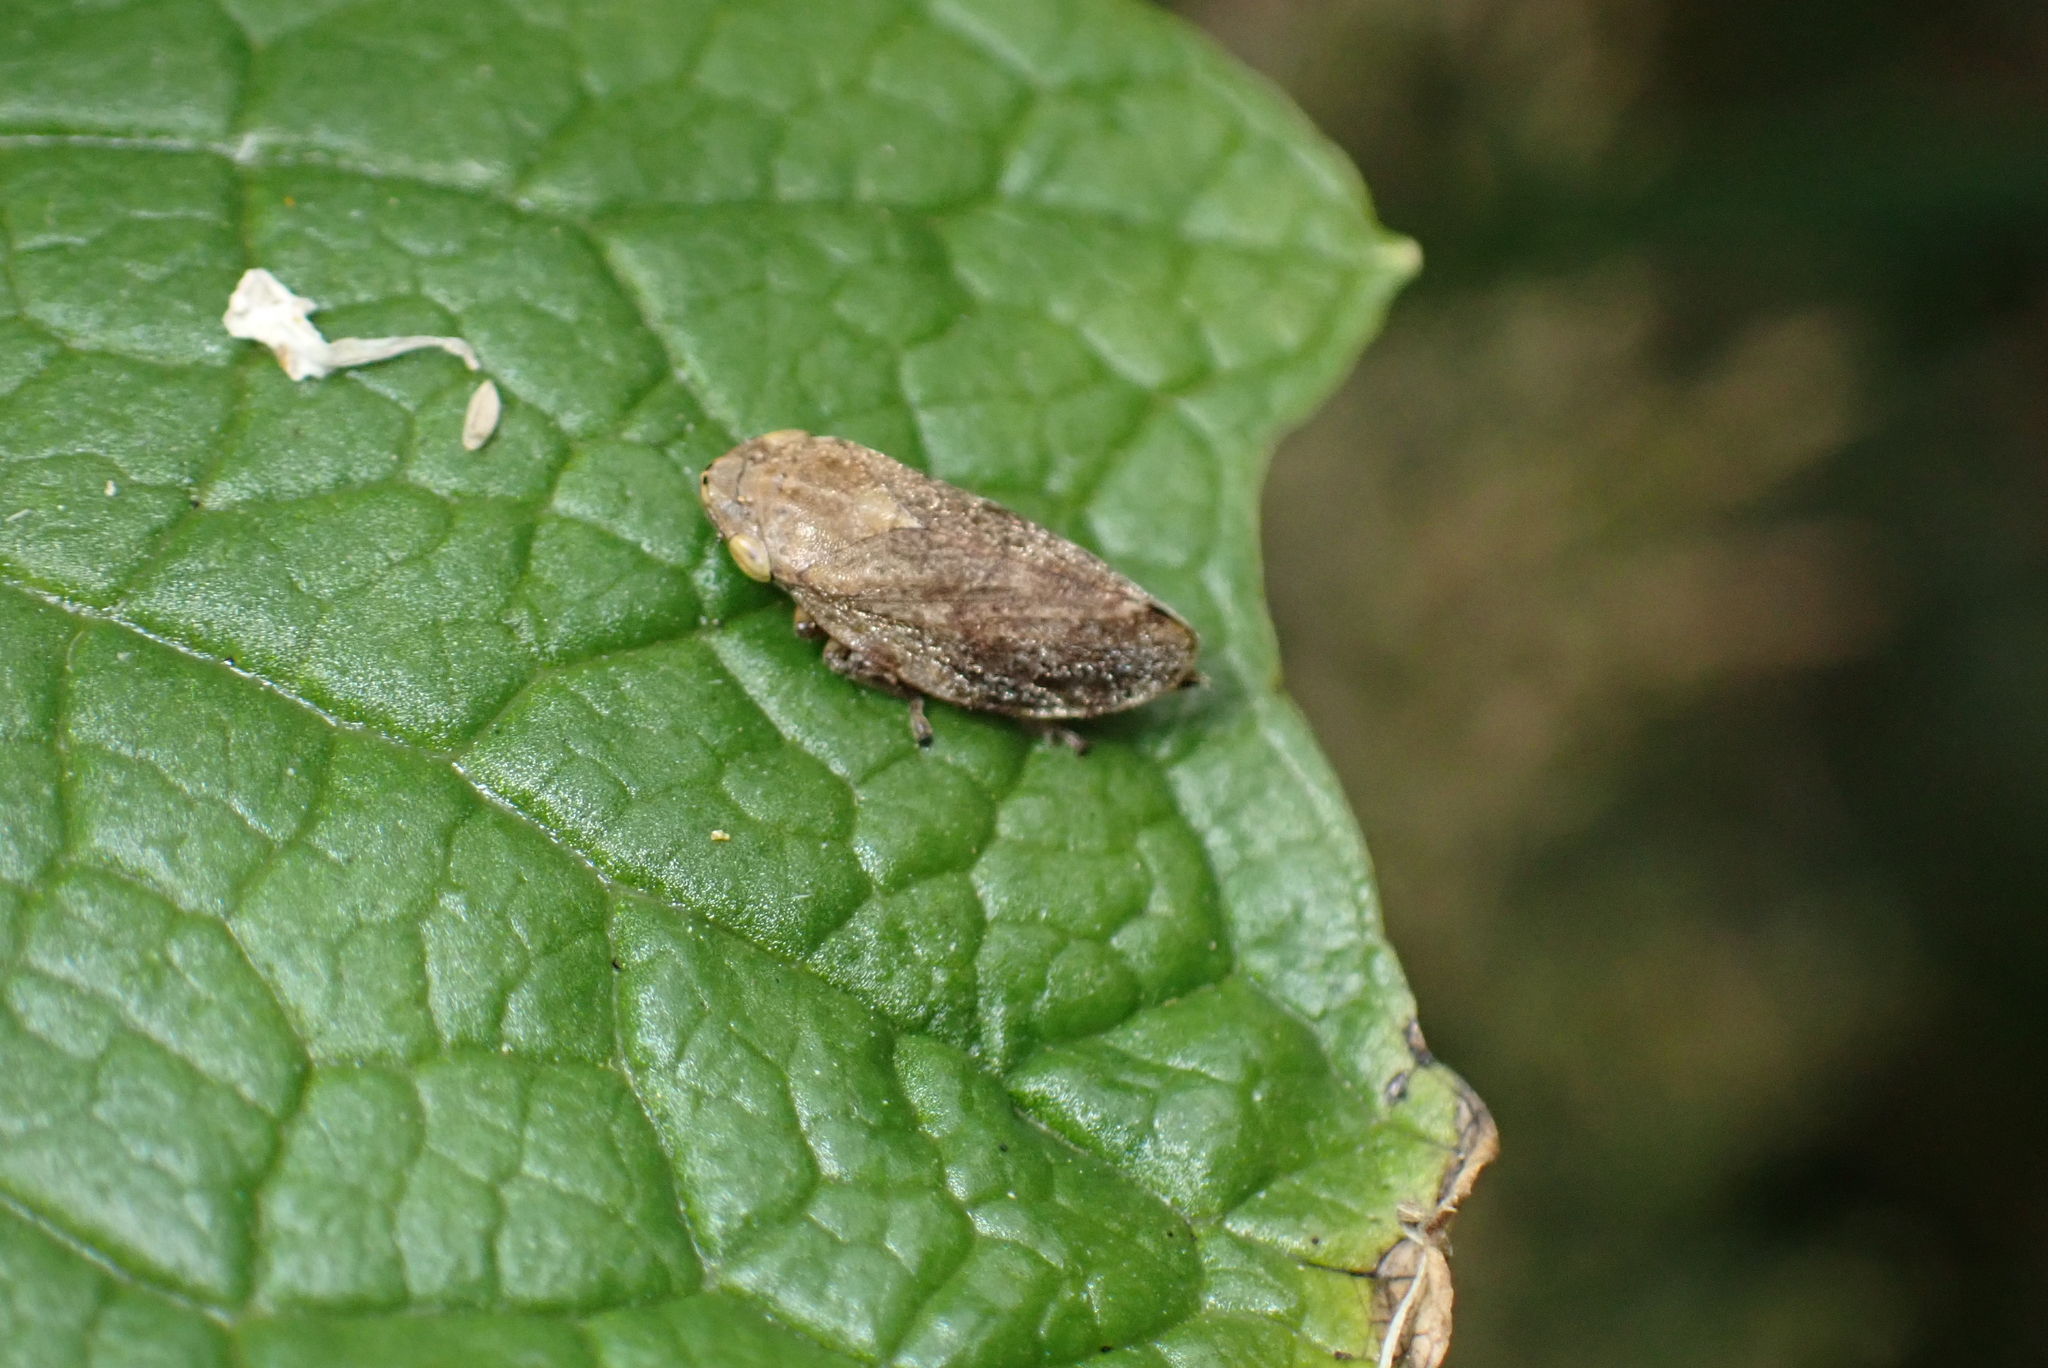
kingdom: Animalia
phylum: Arthropoda
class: Insecta
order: Hemiptera
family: Aphrophoridae
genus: Philaenus
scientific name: Philaenus spumarius
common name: Meadow spittlebug
